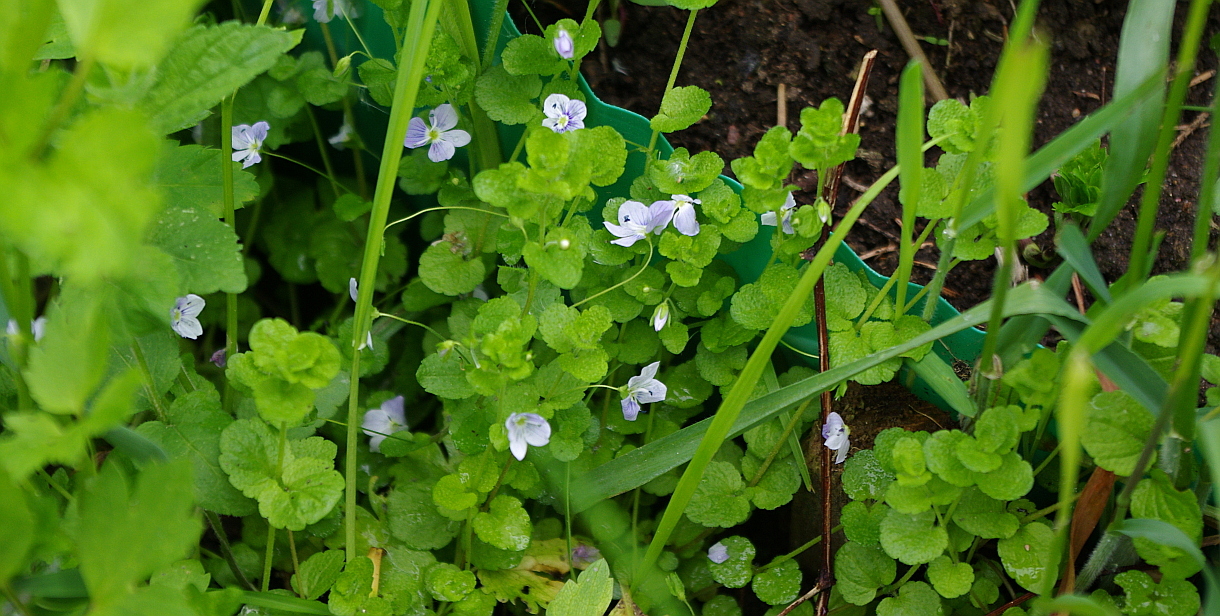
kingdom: Plantae
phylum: Tracheophyta
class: Magnoliopsida
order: Lamiales
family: Plantaginaceae
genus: Veronica
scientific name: Veronica filiformis
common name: Slender speedwell
